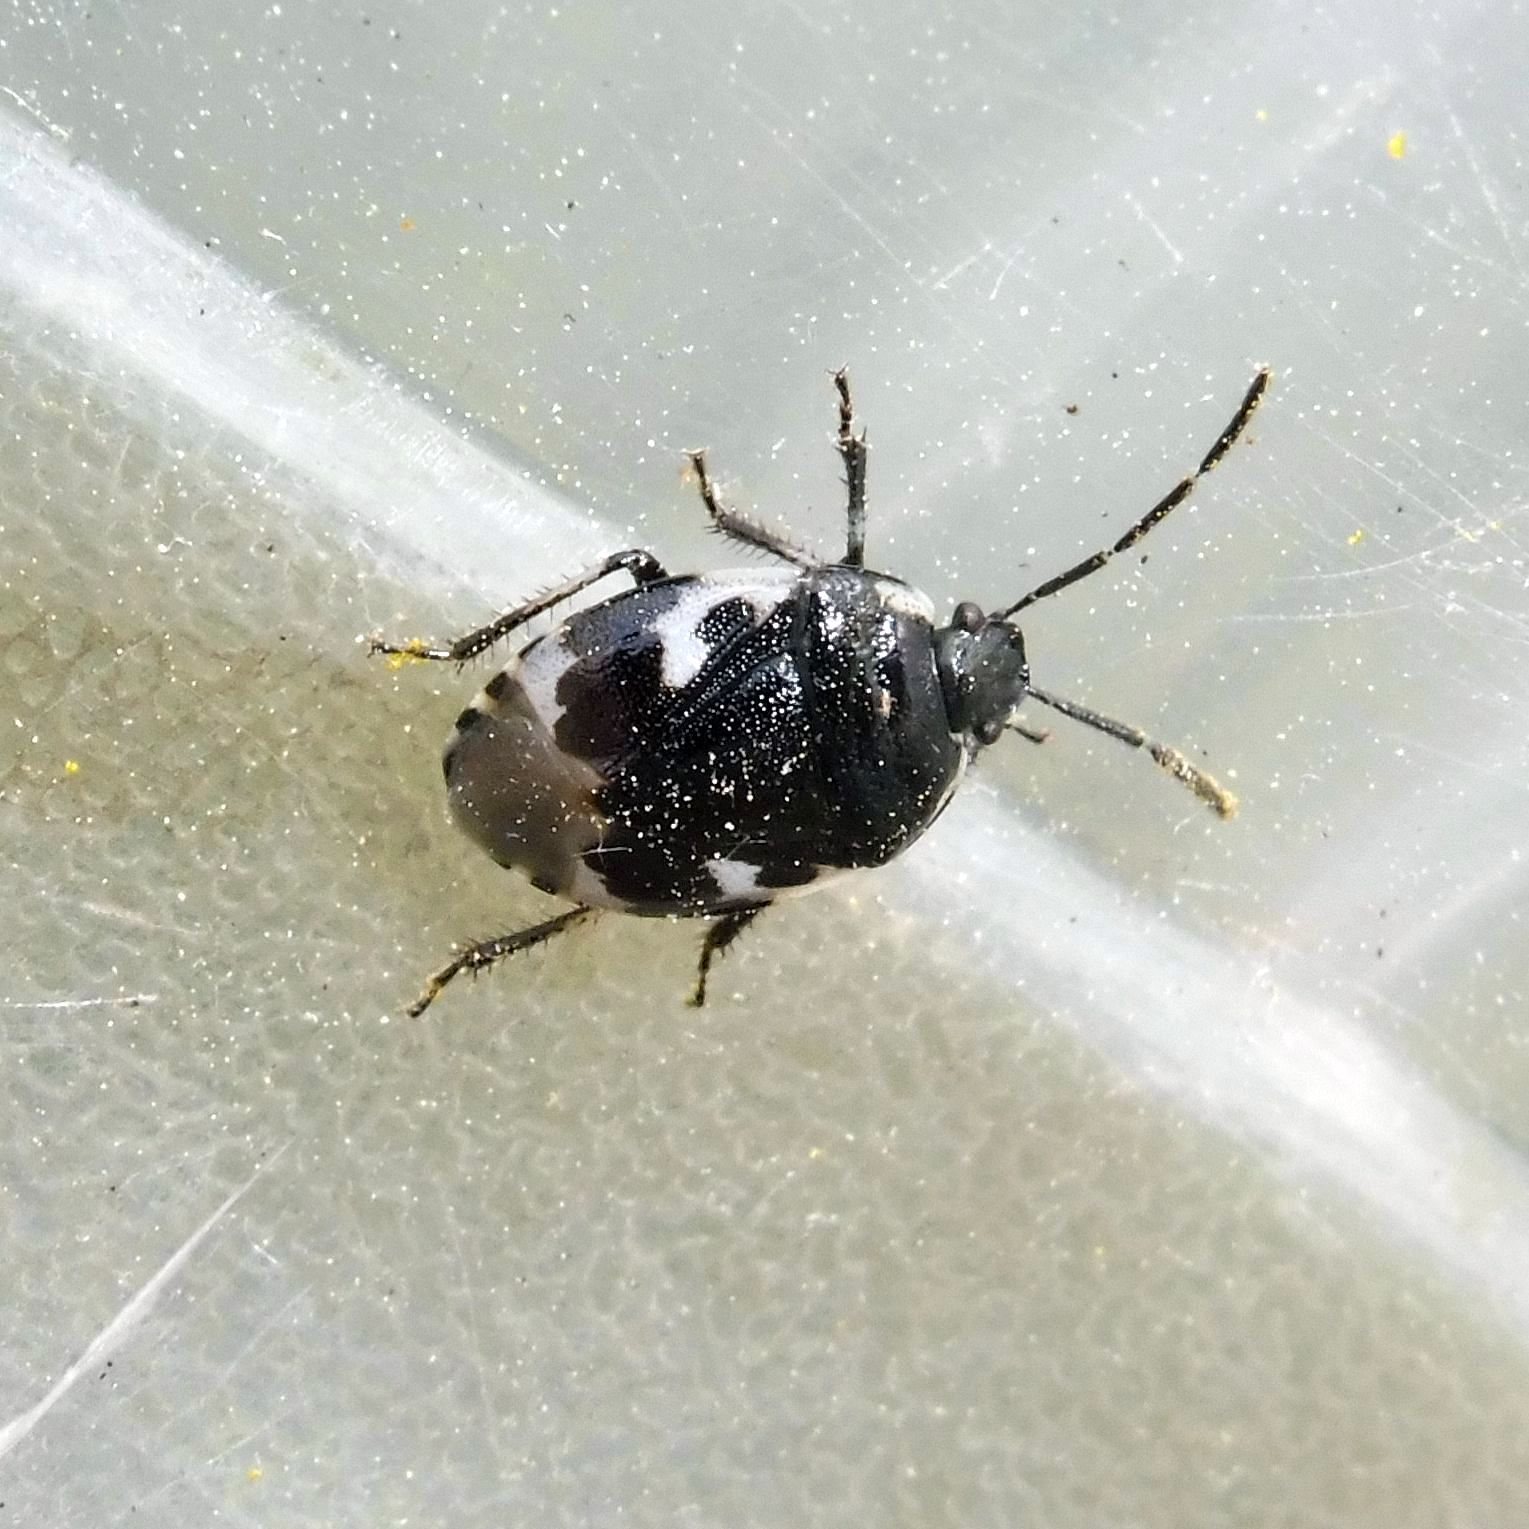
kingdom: Animalia
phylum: Arthropoda
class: Insecta
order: Hemiptera
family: Cydnidae
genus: Tritomegas
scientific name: Tritomegas bicolor
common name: Pied shieldbug
